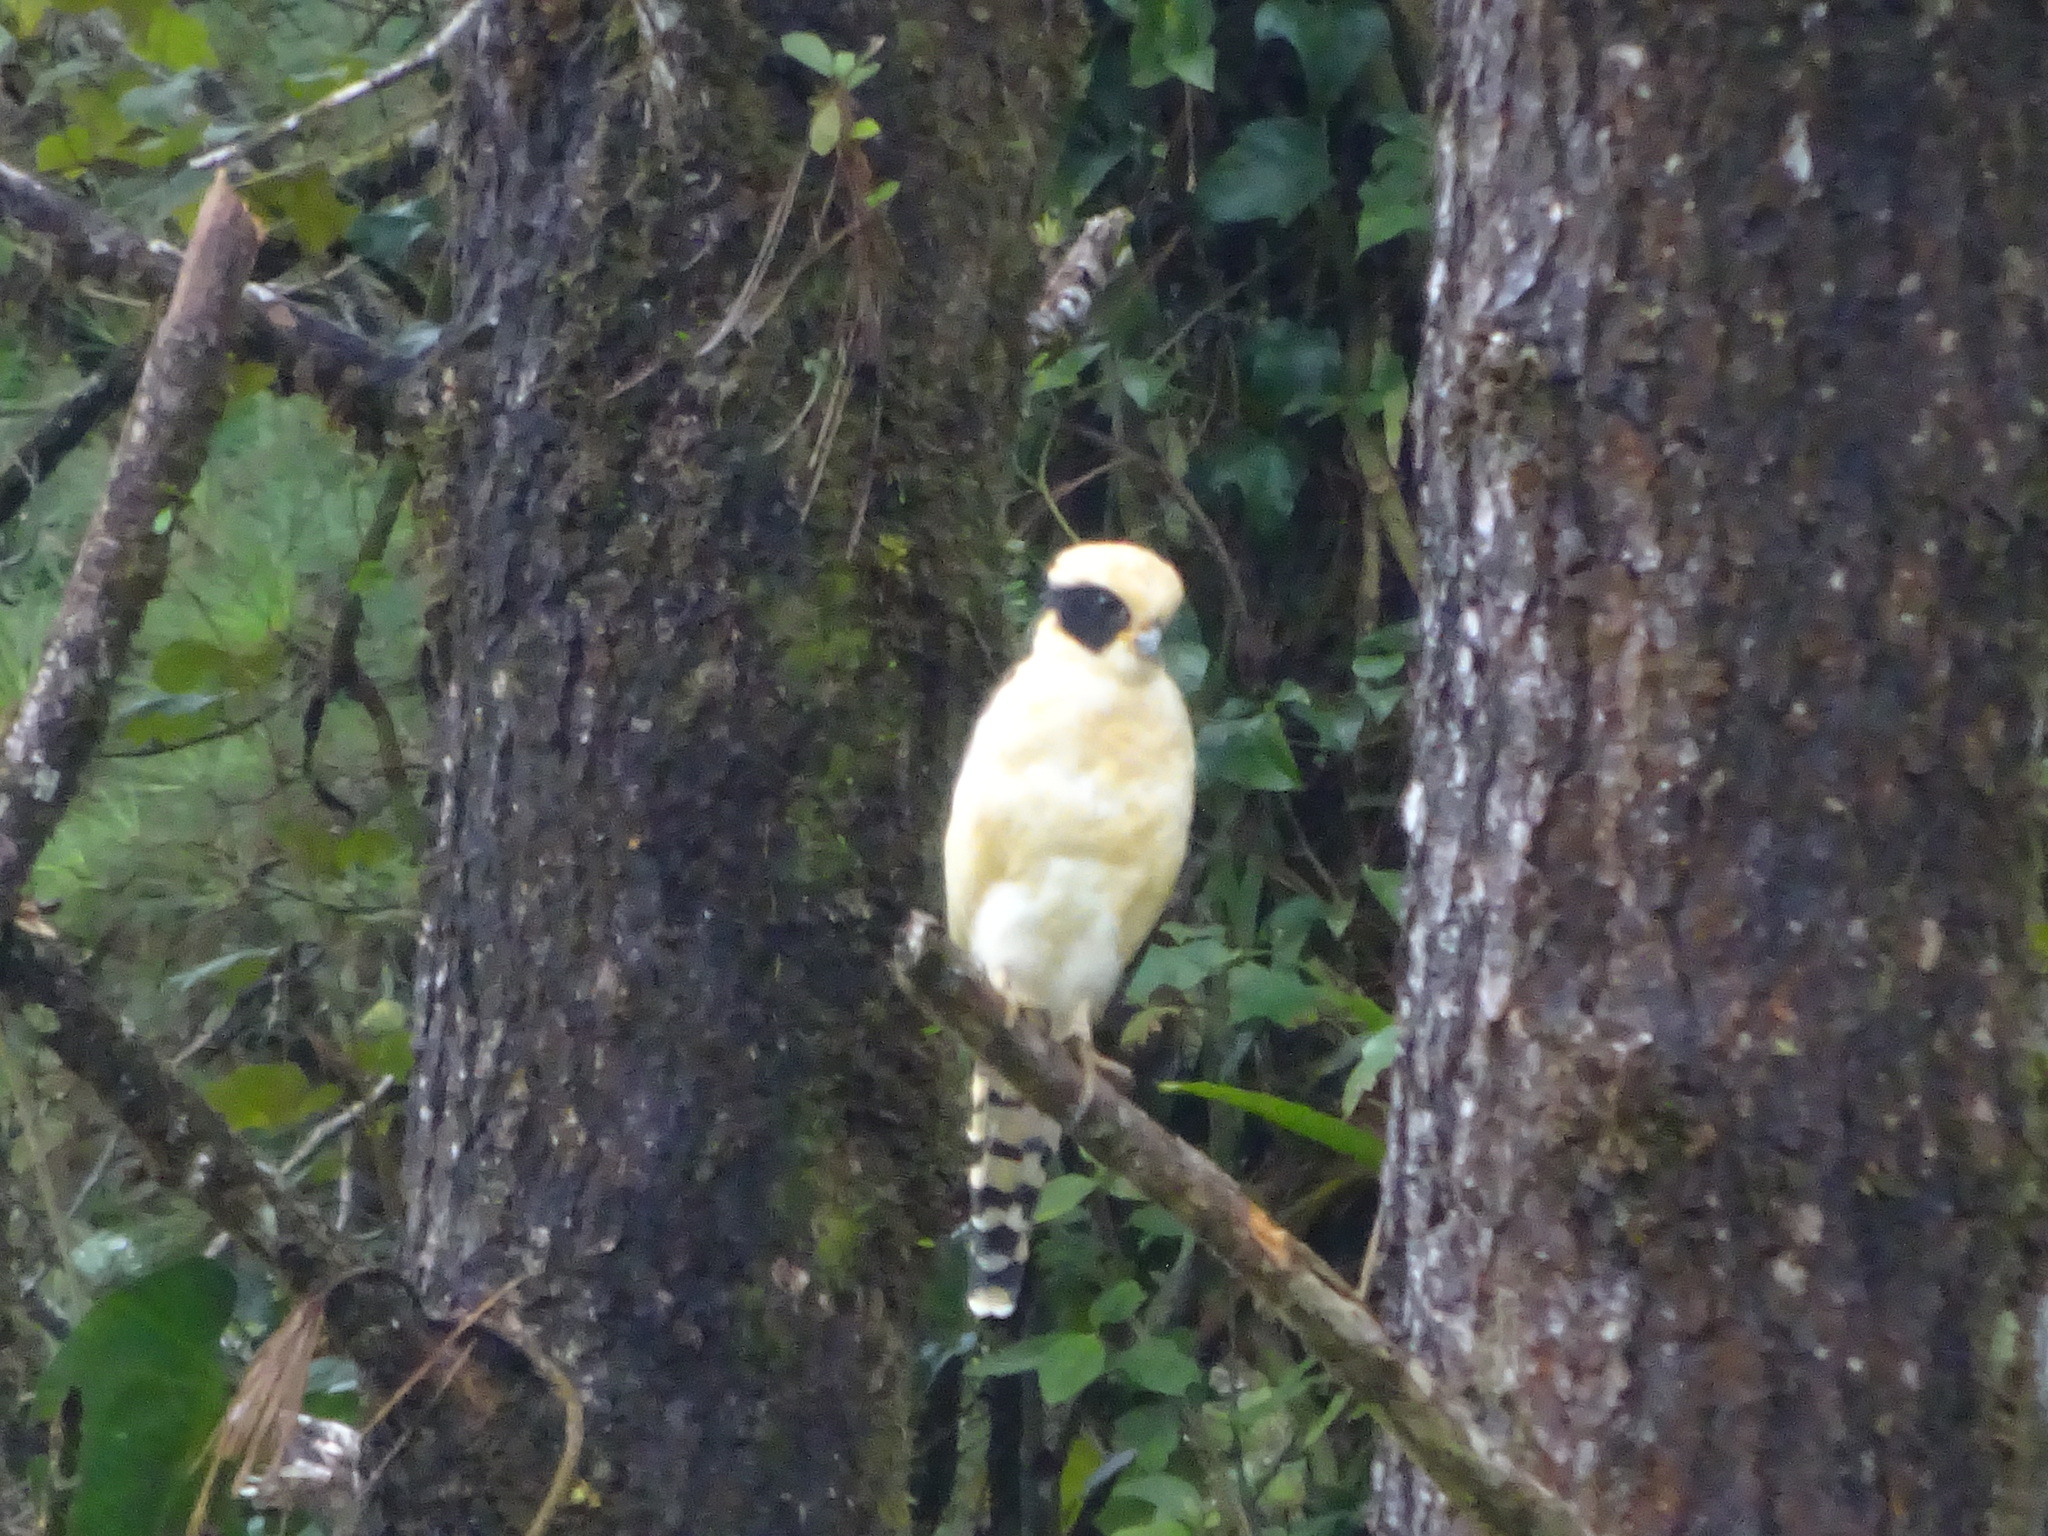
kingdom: Animalia
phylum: Chordata
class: Aves
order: Falconiformes
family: Falconidae
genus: Herpetotheres
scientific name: Herpetotheres cachinnans
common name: Laughing falcon
